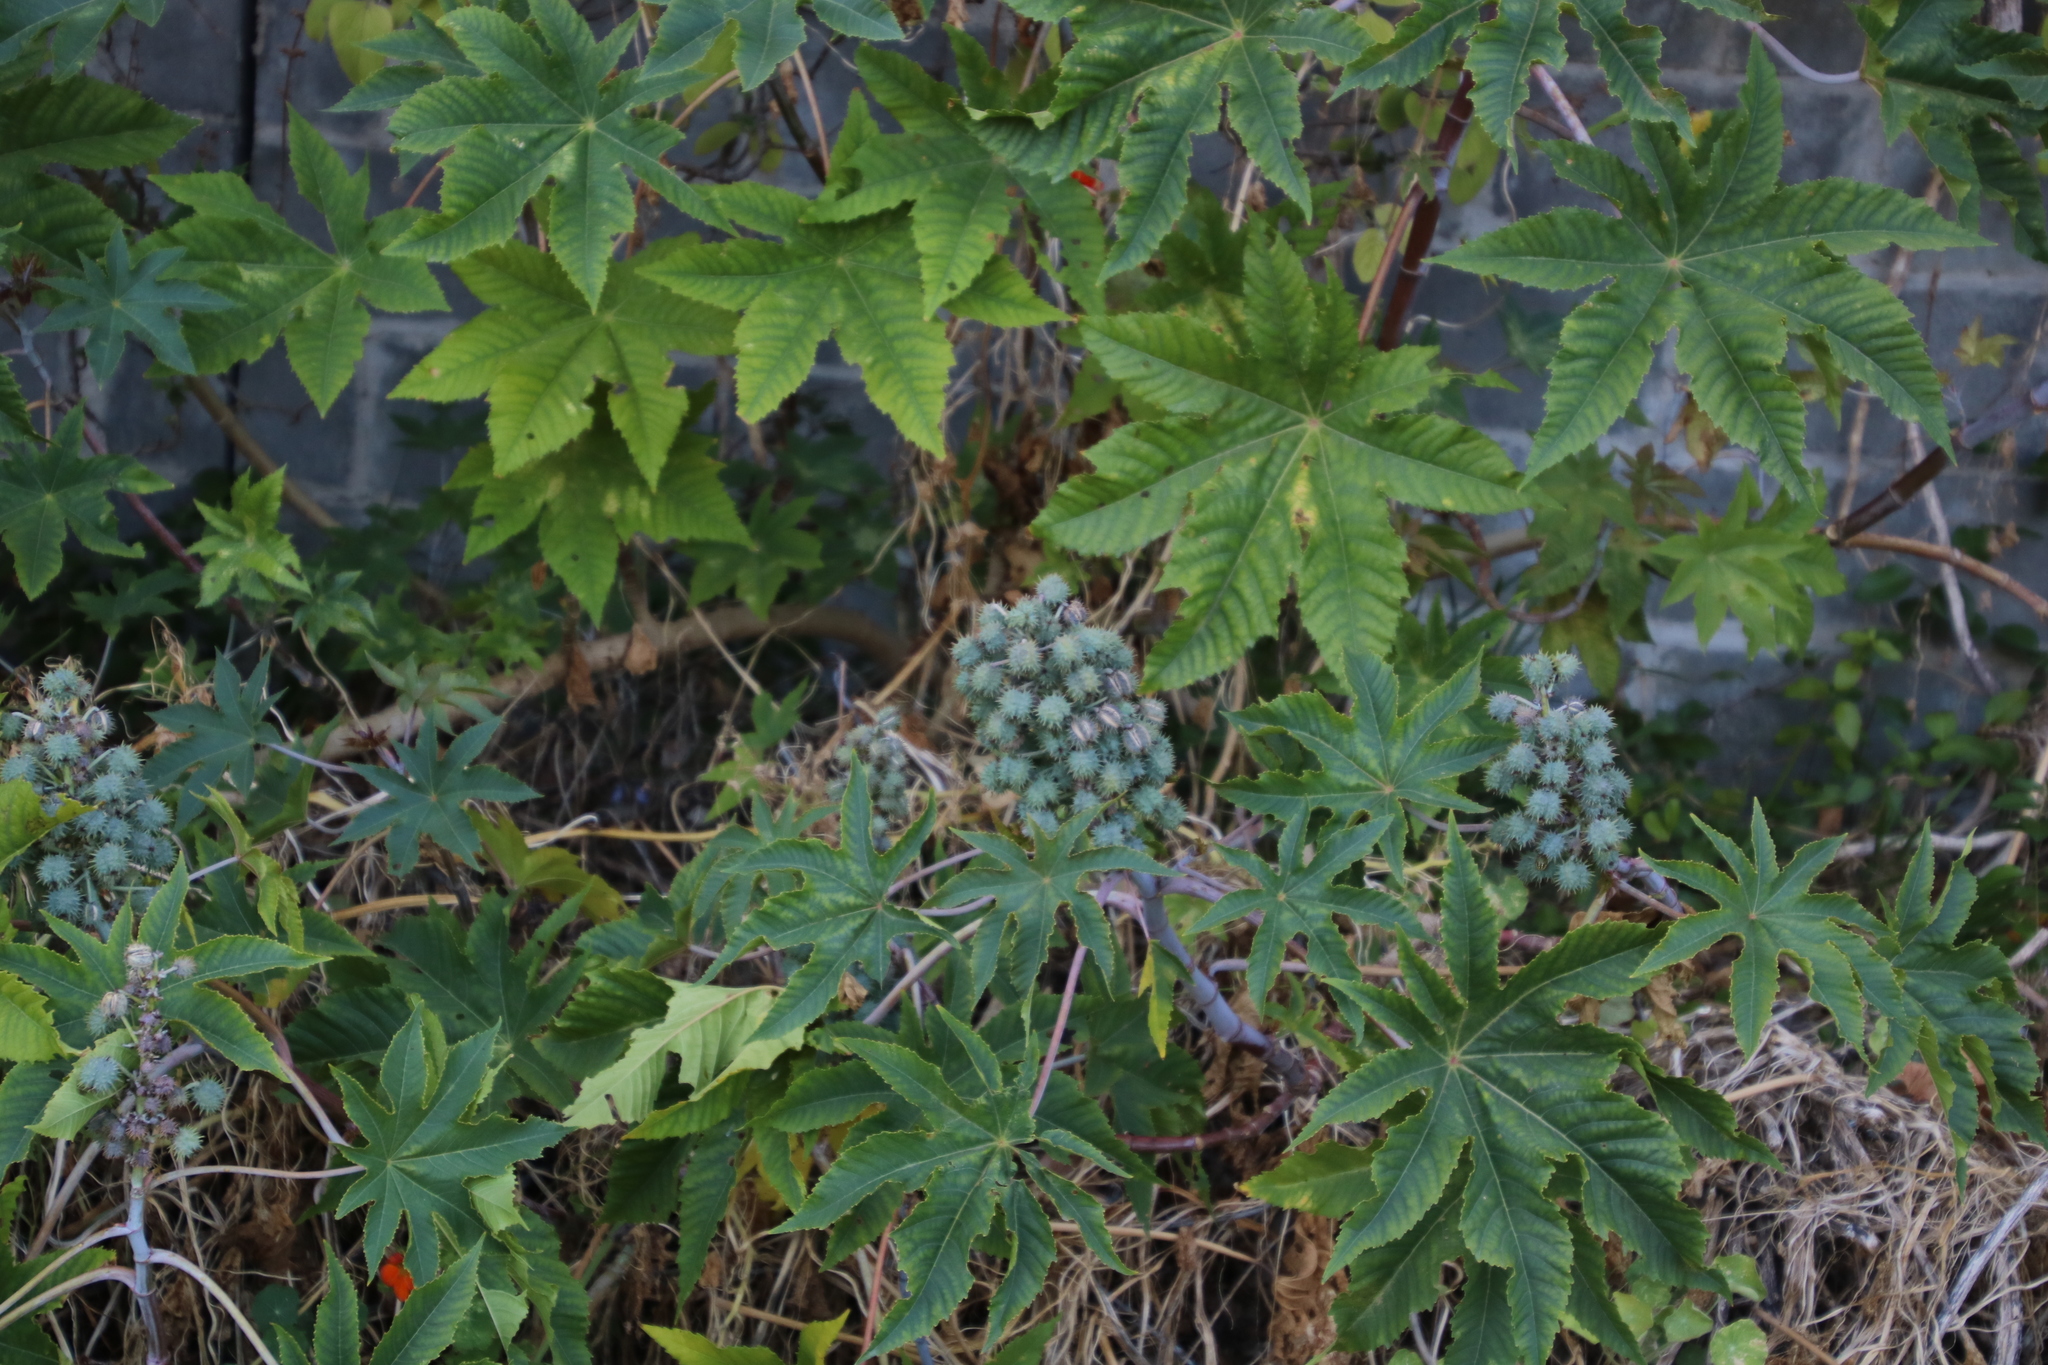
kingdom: Plantae
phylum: Tracheophyta
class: Magnoliopsida
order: Malpighiales
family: Euphorbiaceae
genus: Ricinus
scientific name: Ricinus communis
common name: Castor-oil-plant
